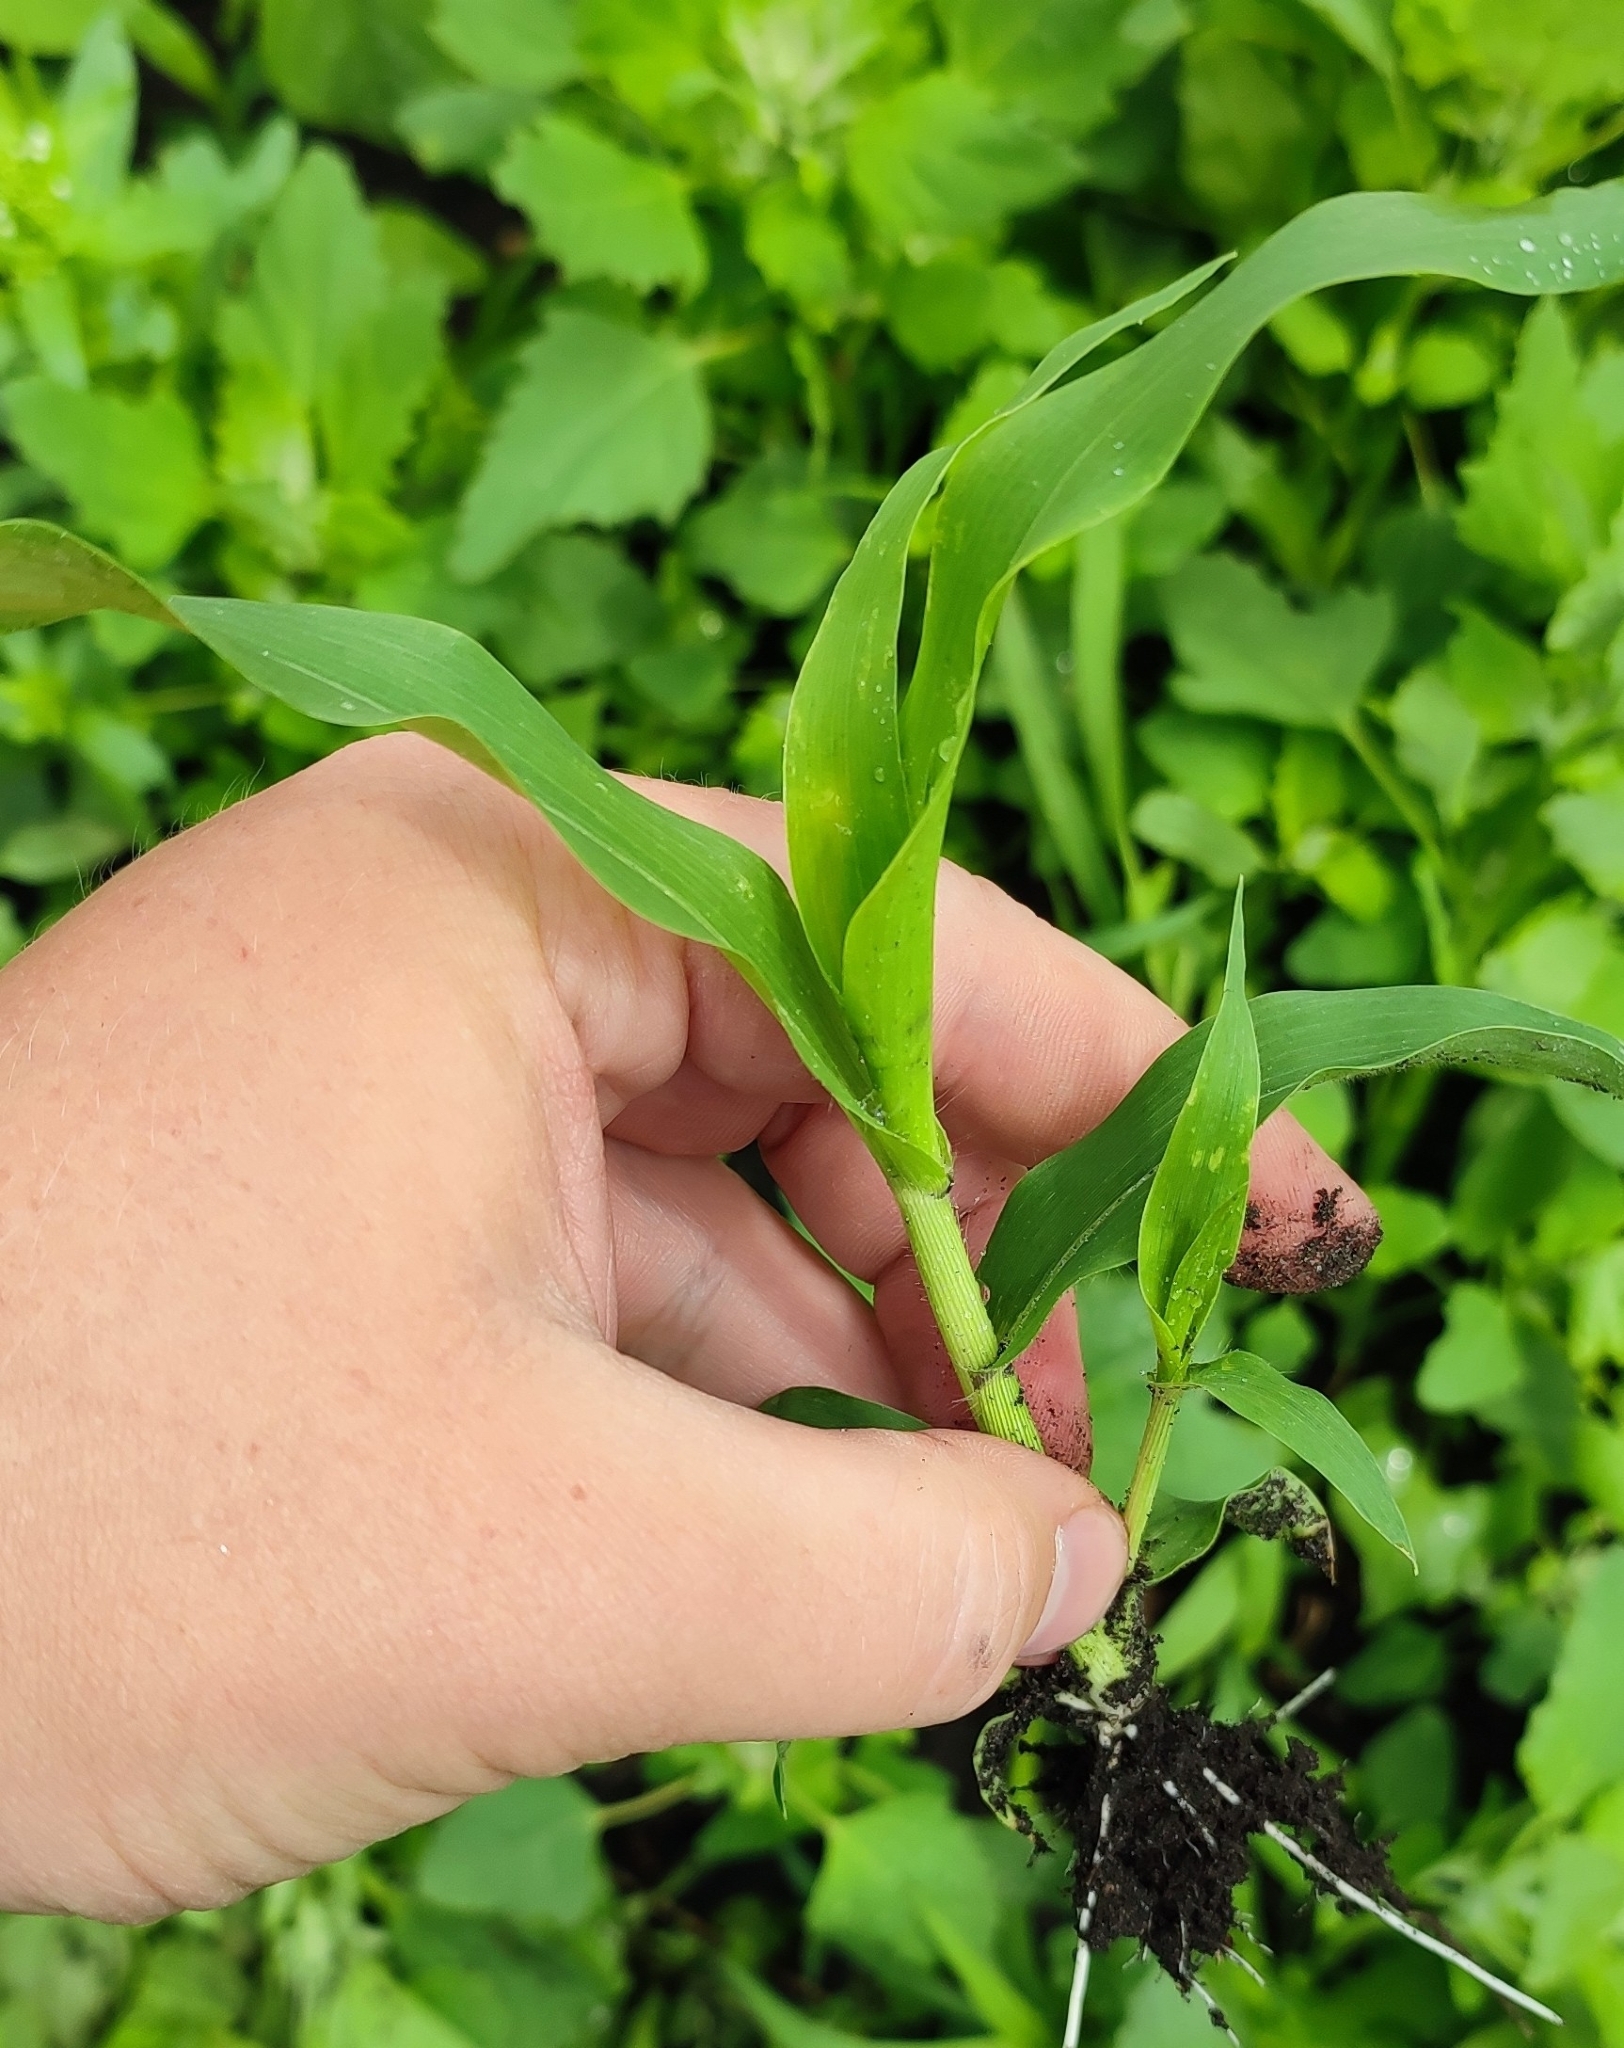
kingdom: Plantae
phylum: Tracheophyta
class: Liliopsida
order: Poales
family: Poaceae
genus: Panicum
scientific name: Panicum miliaceum
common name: Common millet
